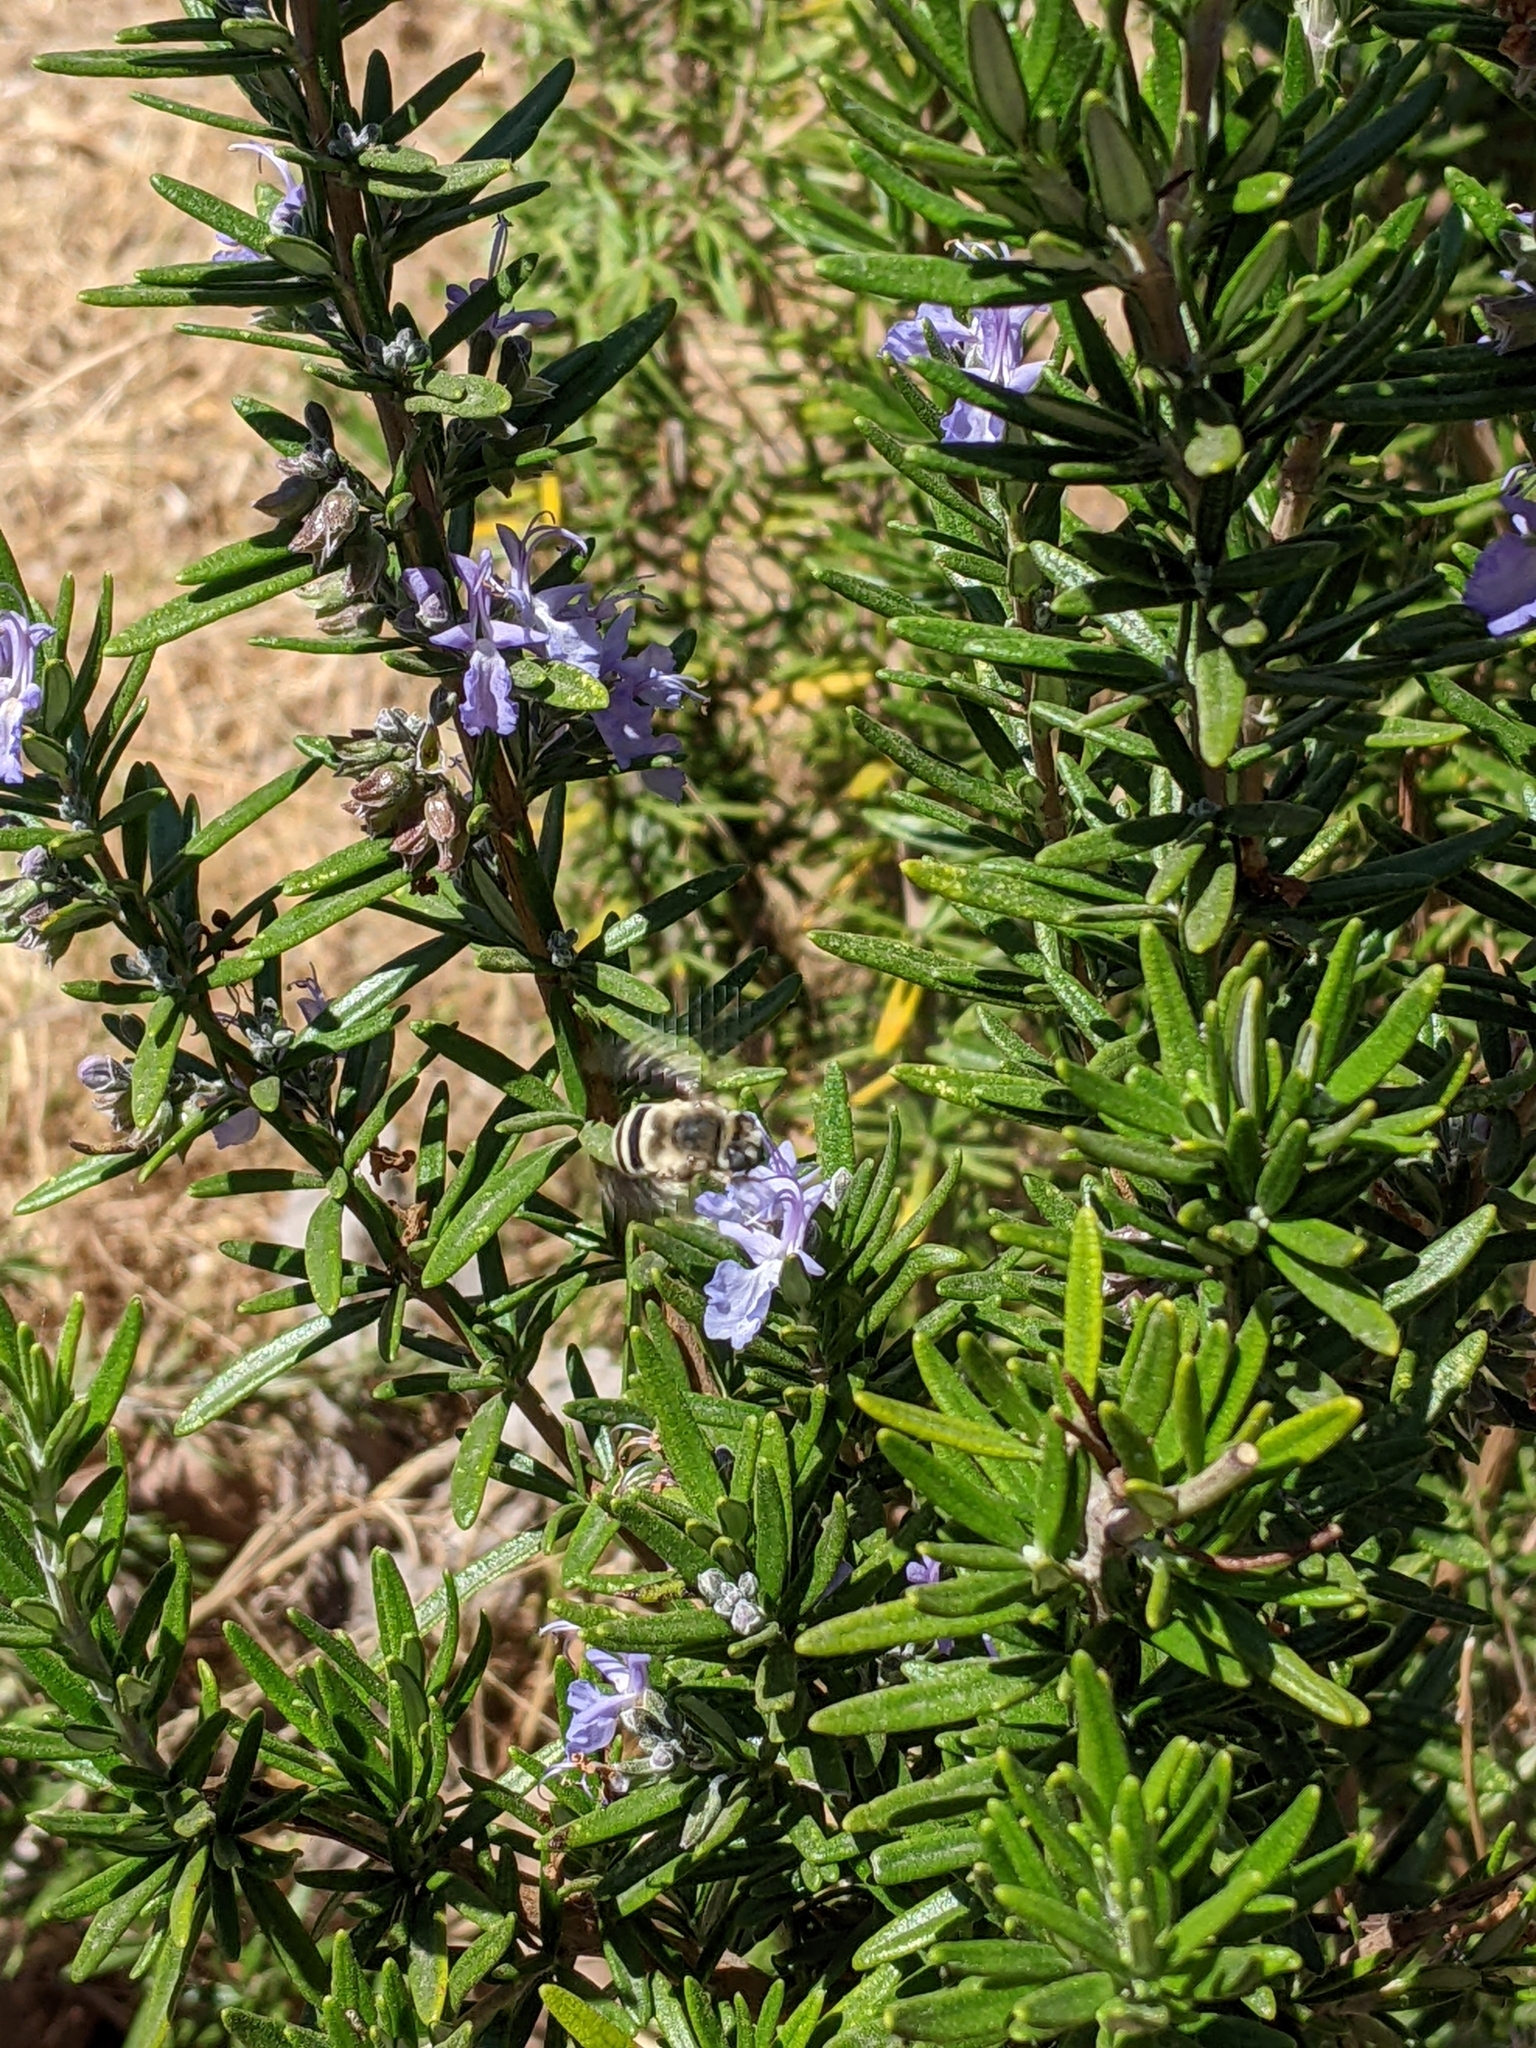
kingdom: Animalia
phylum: Arthropoda
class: Insecta
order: Hymenoptera
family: Apidae
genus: Anthophora
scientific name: Anthophora urbana
